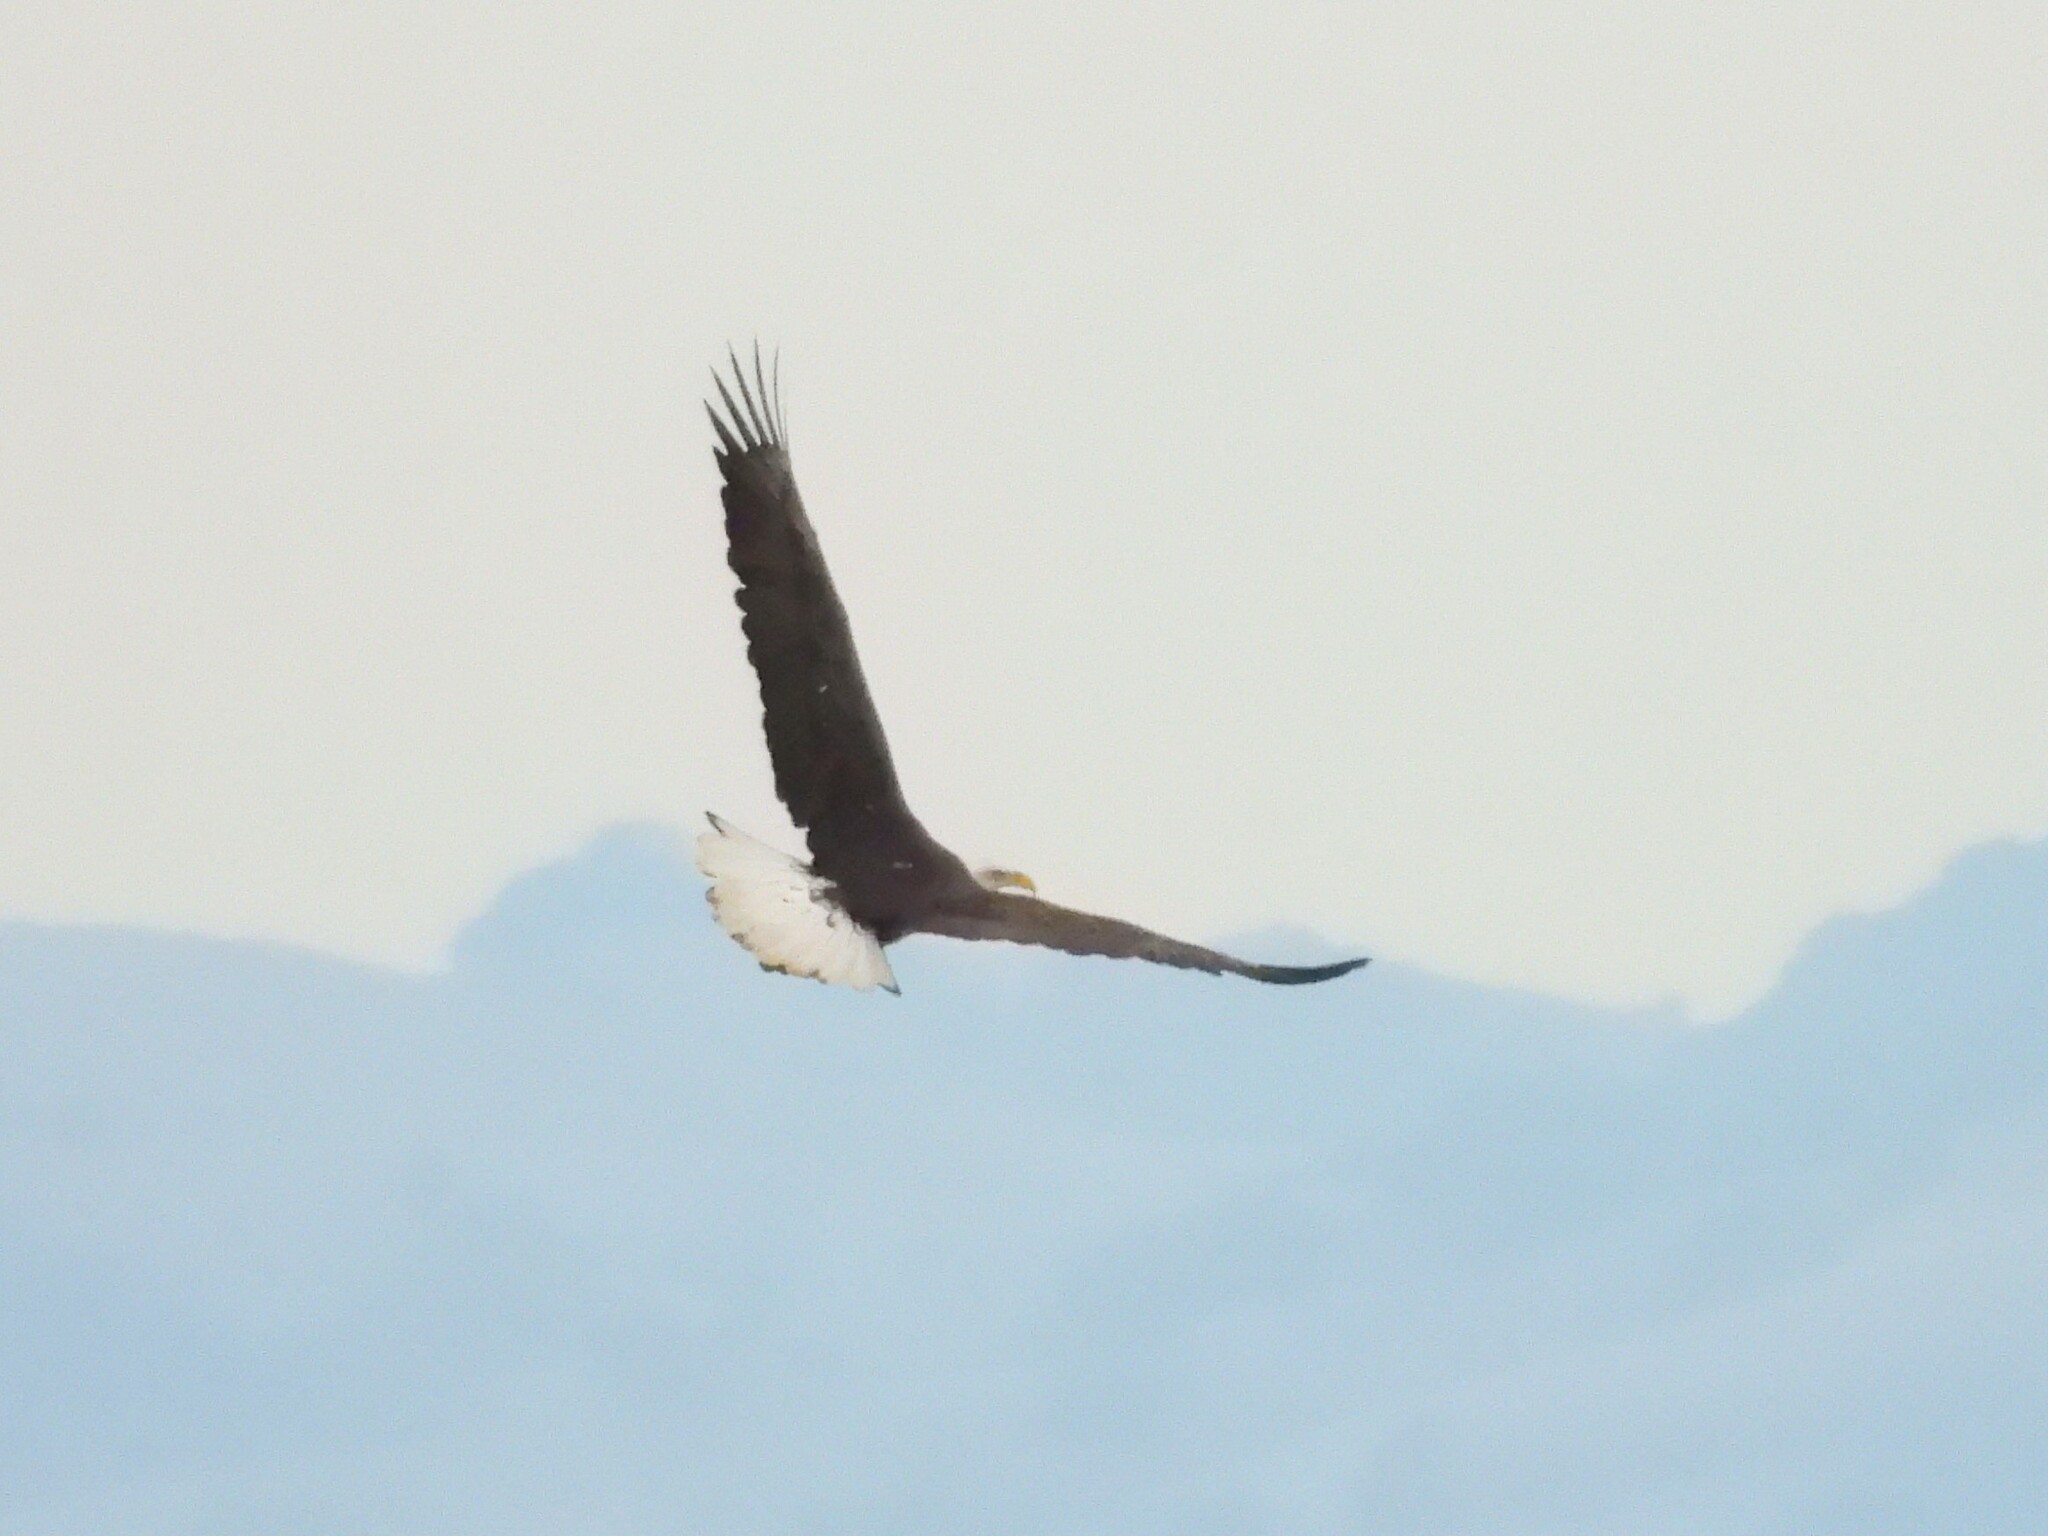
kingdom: Animalia
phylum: Chordata
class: Aves
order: Accipitriformes
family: Accipitridae
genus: Haliaeetus
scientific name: Haliaeetus leucocephalus
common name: Bald eagle
